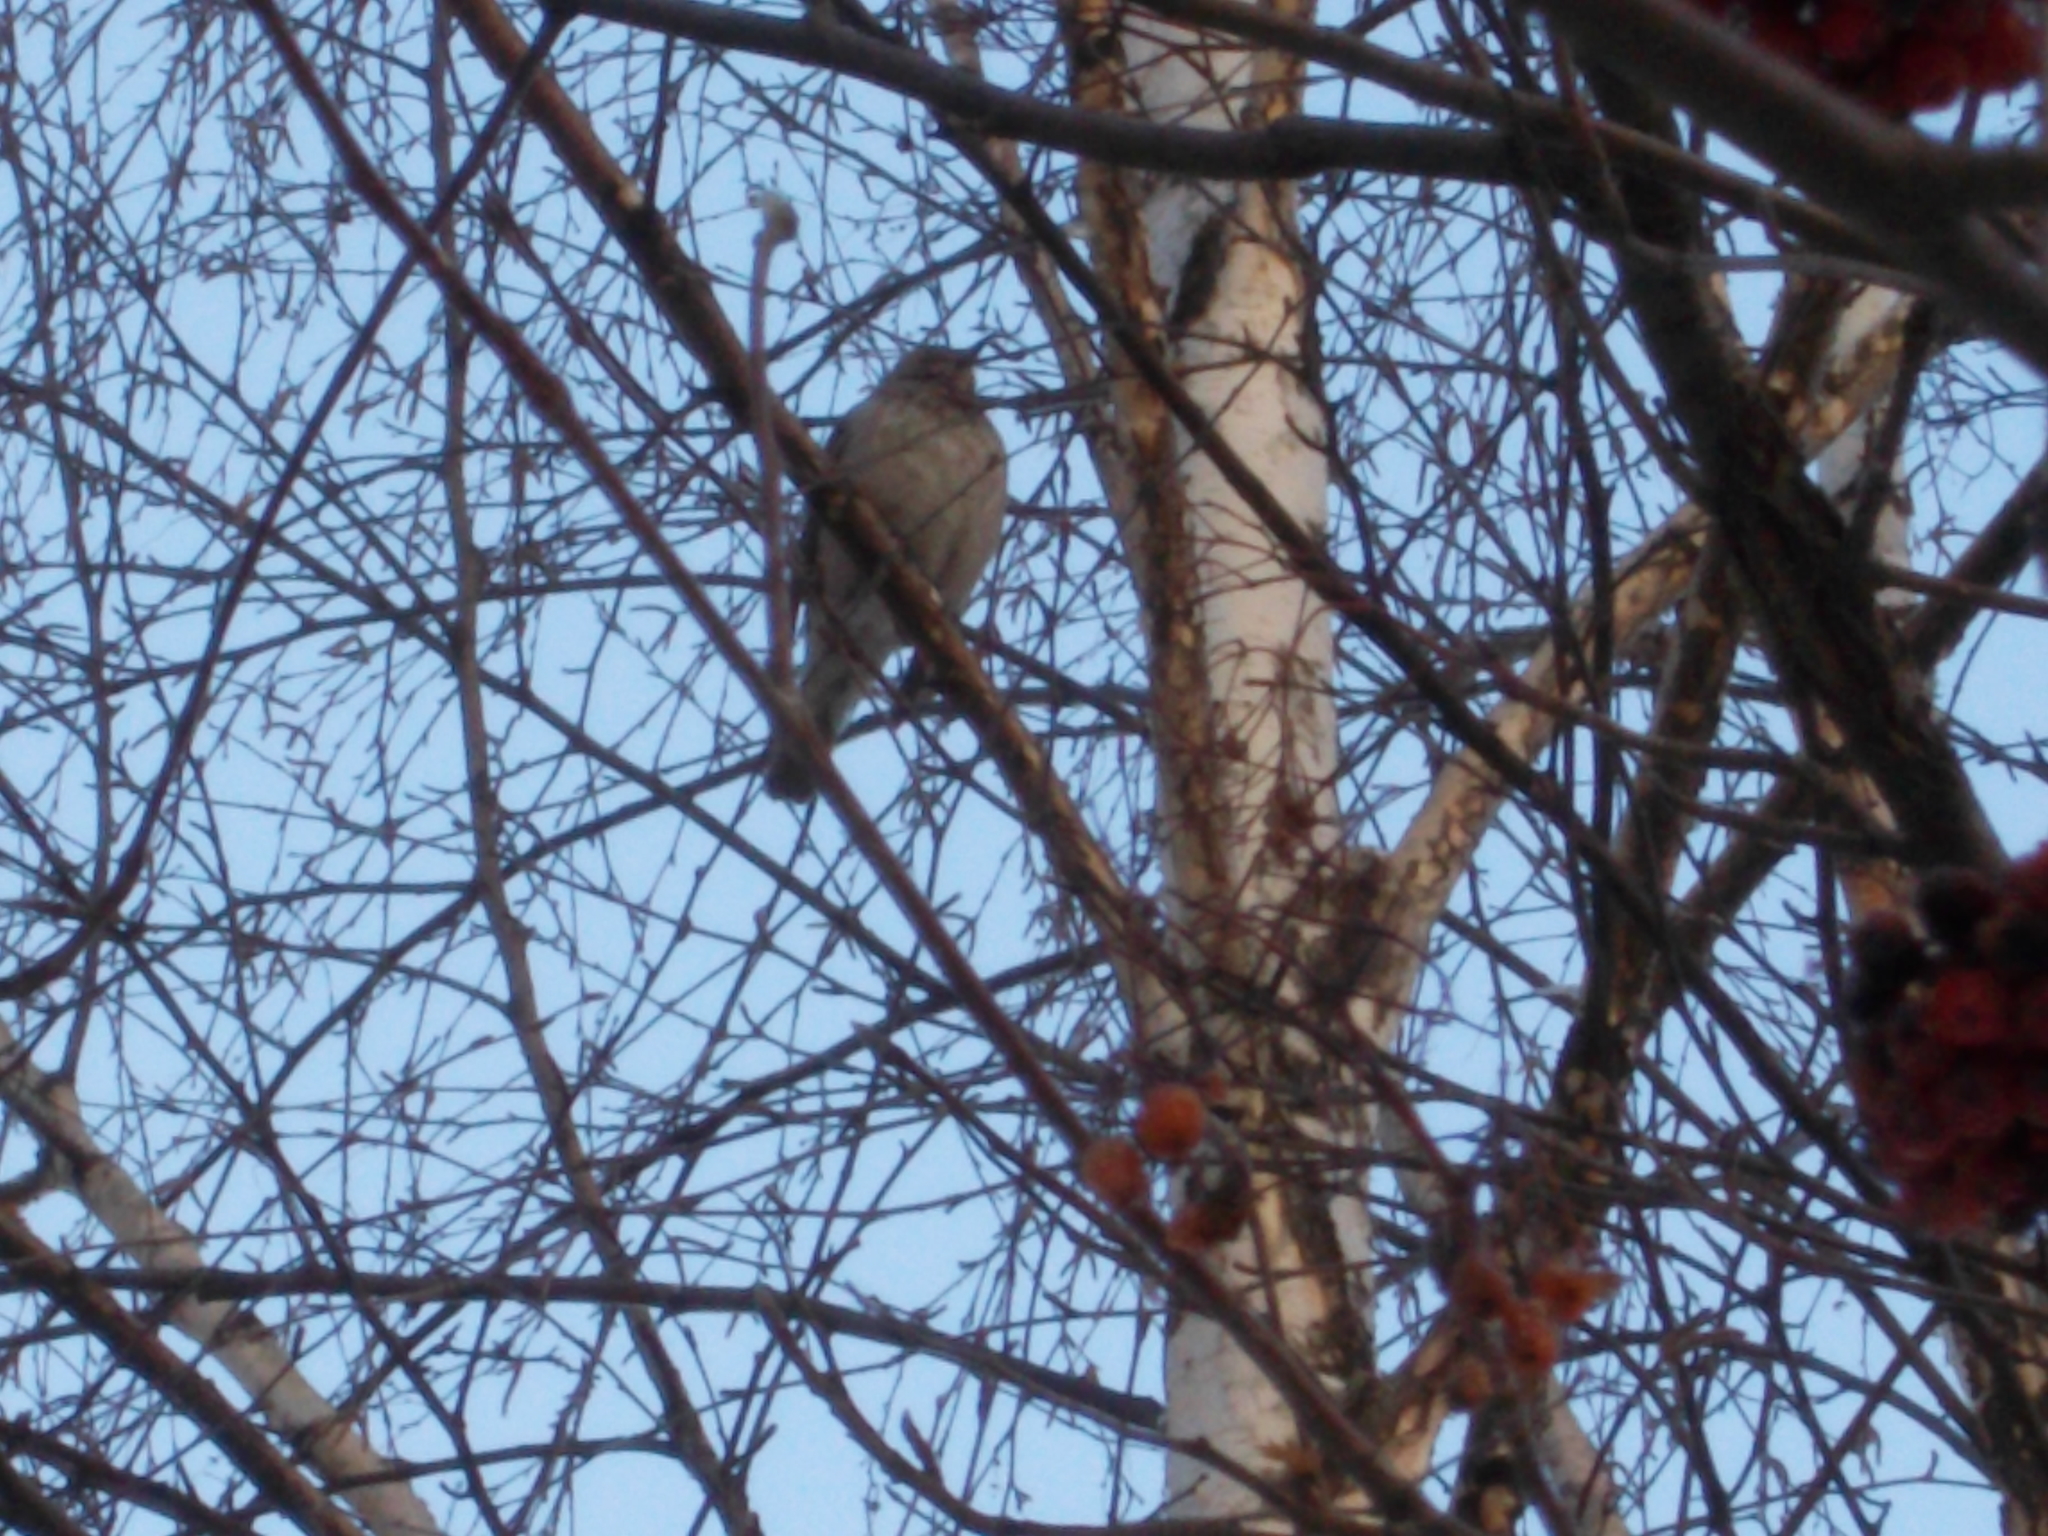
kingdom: Animalia
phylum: Chordata
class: Aves
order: Passeriformes
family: Turdidae
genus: Turdus
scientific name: Turdus atrogularis
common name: Black-throated thrush
